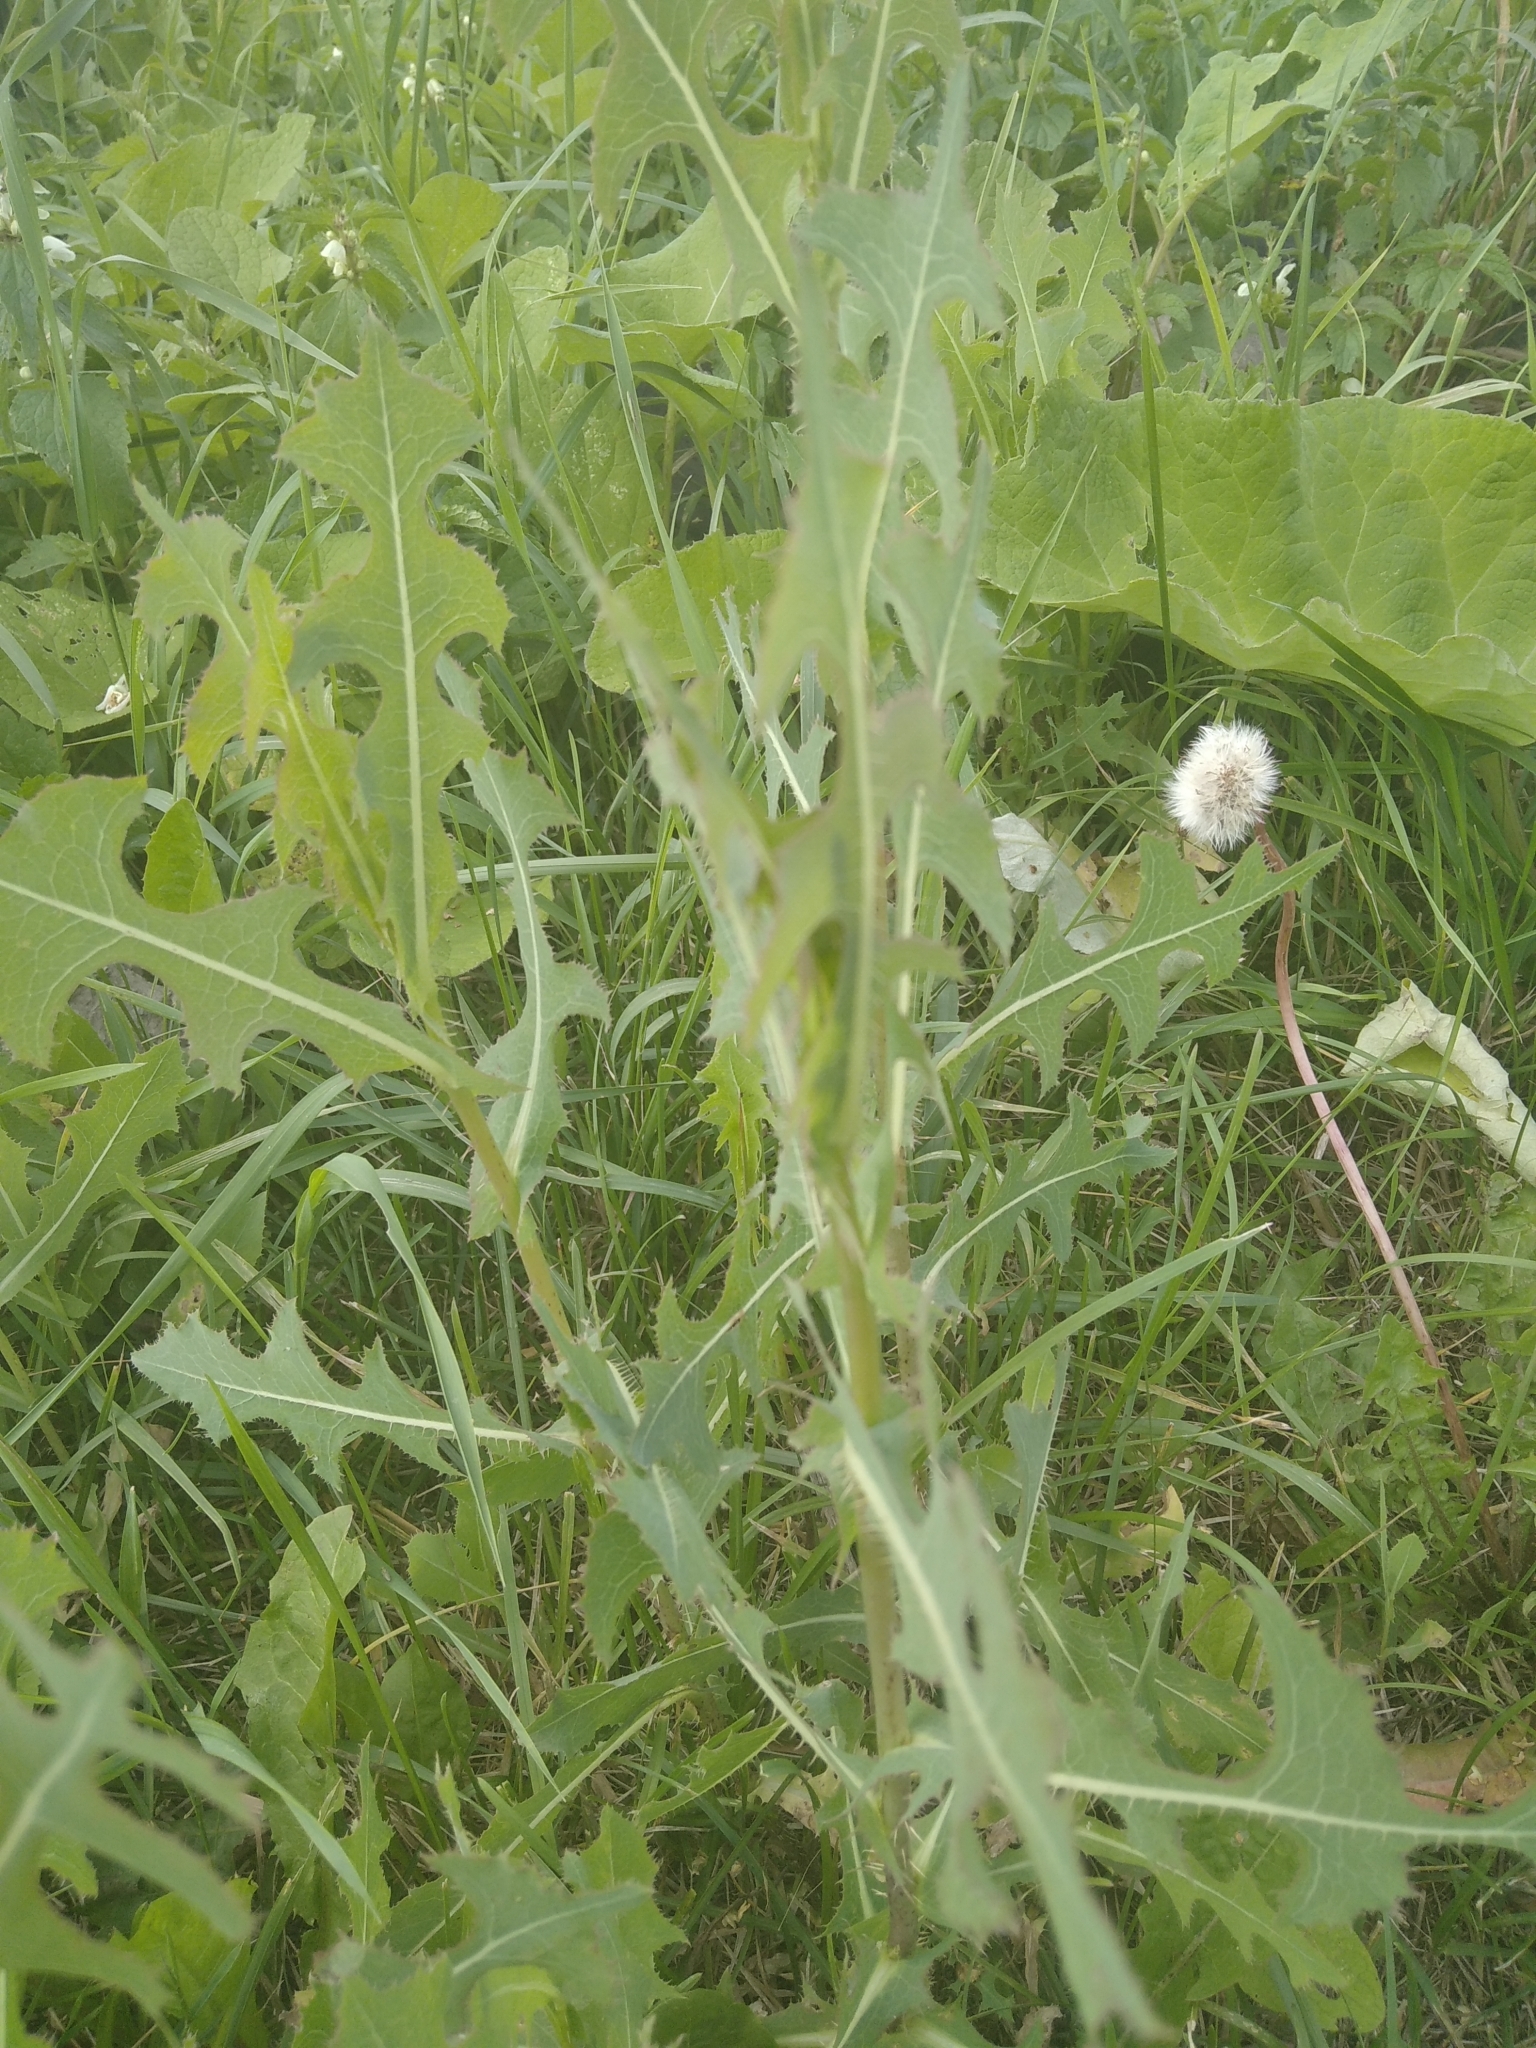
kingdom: Plantae
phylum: Tracheophyta
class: Magnoliopsida
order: Asterales
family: Asteraceae
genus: Lactuca
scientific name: Lactuca serriola
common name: Prickly lettuce
